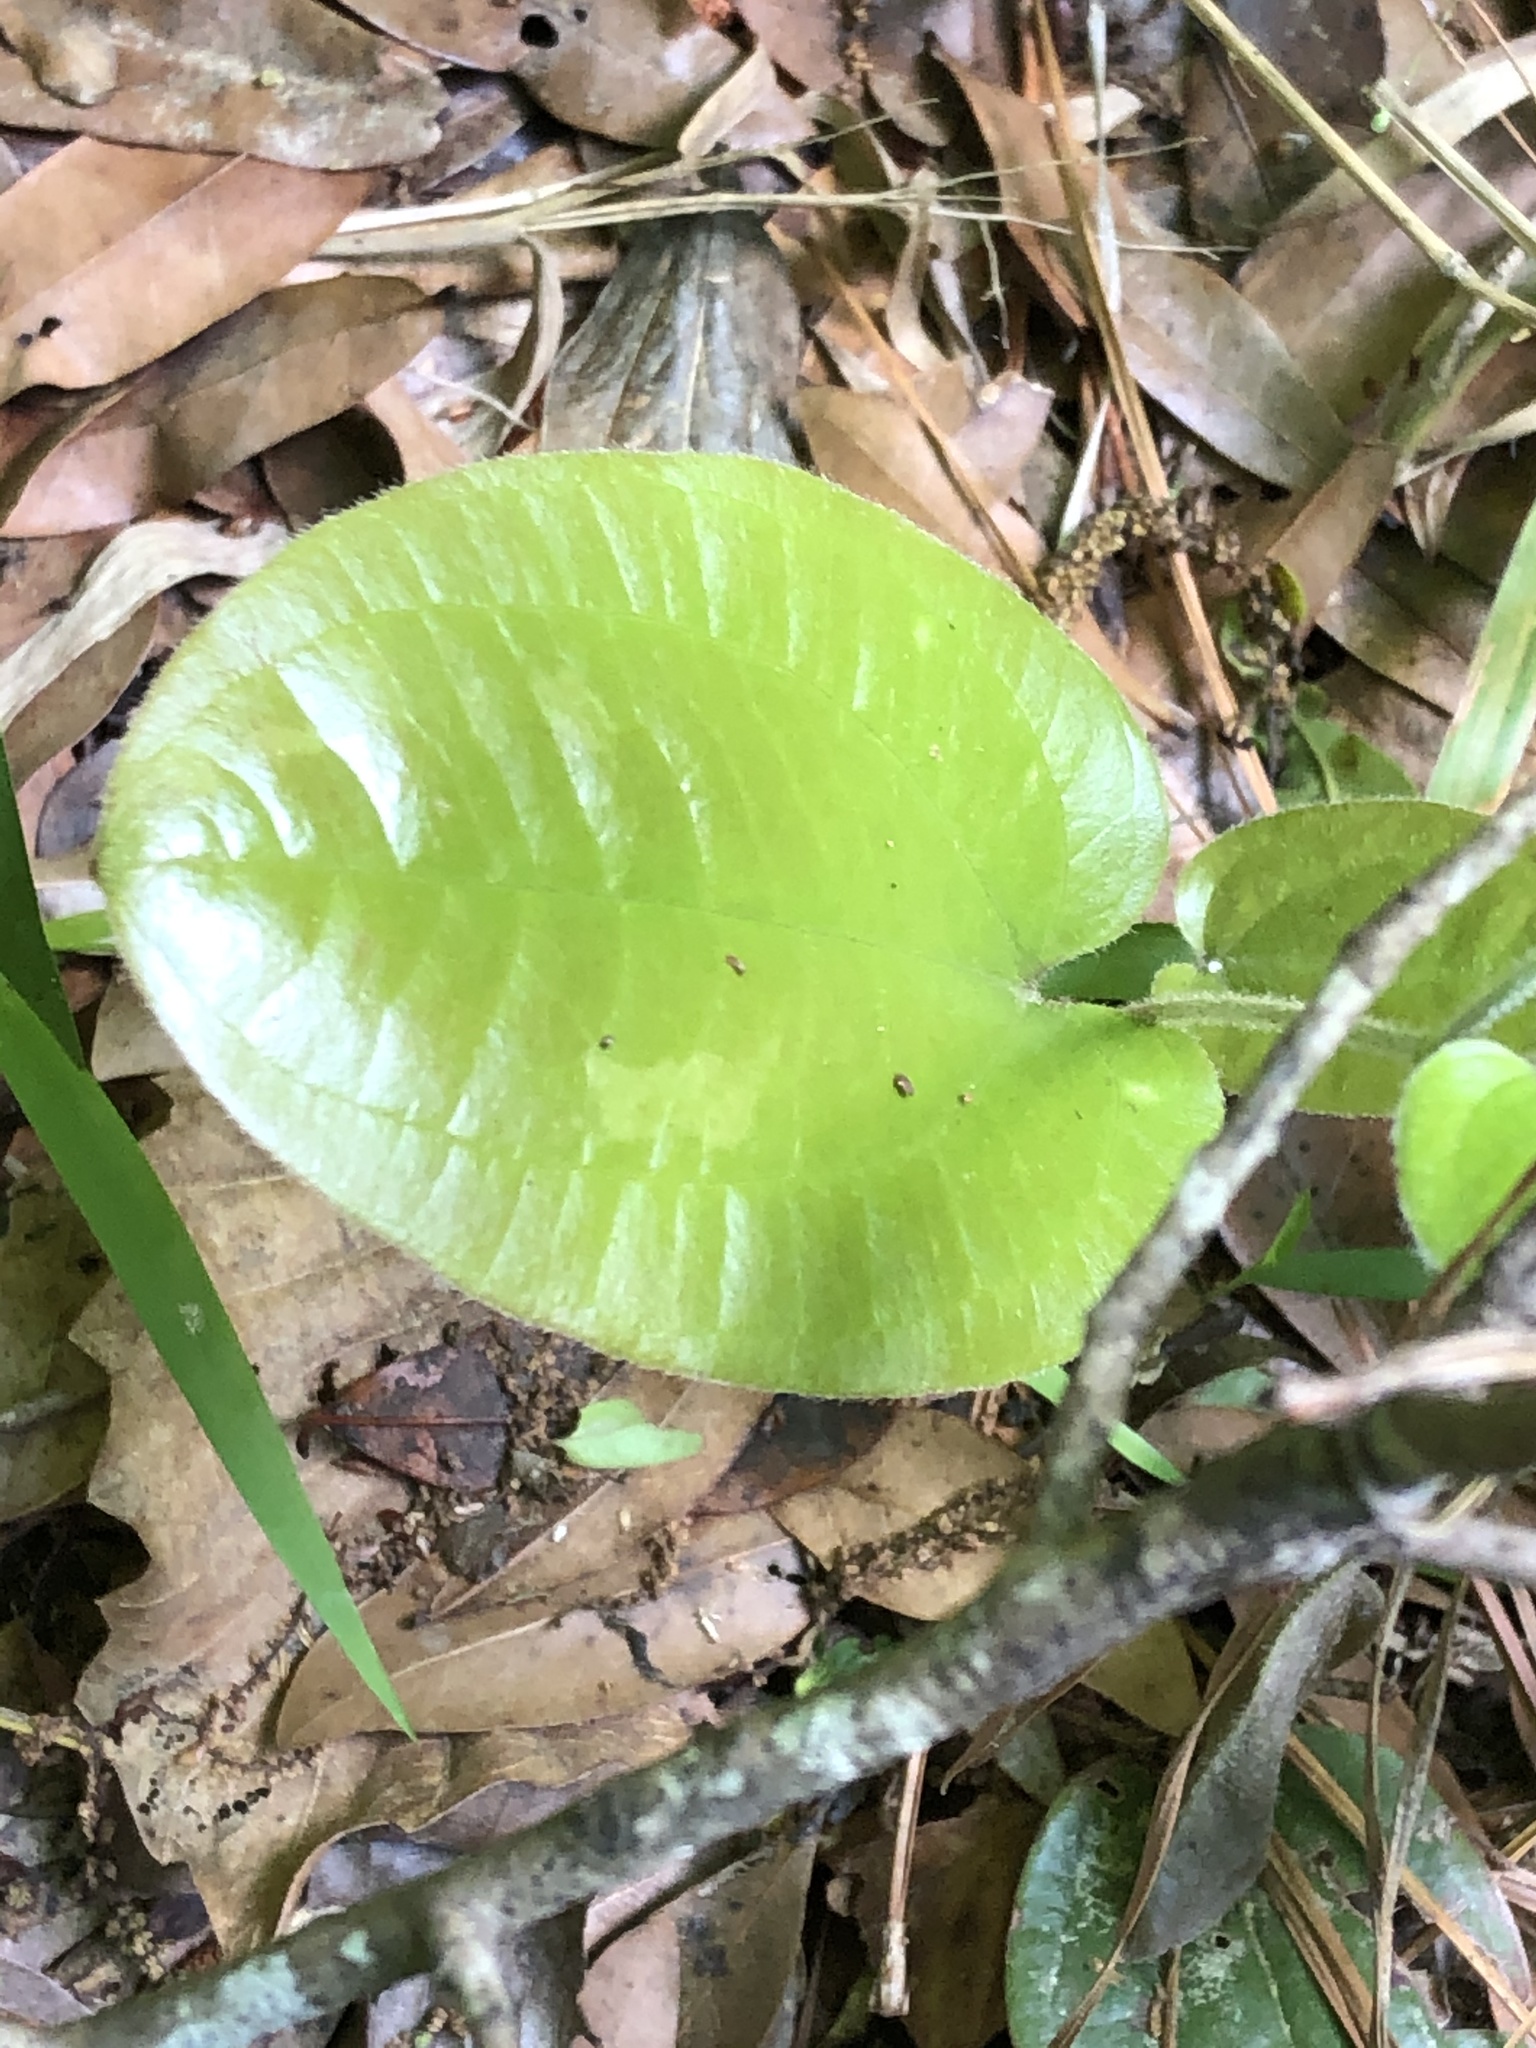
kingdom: Plantae
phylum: Tracheophyta
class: Liliopsida
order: Liliales
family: Smilacaceae
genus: Smilax
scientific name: Smilax pumila
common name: Sarsaparilla-vine
